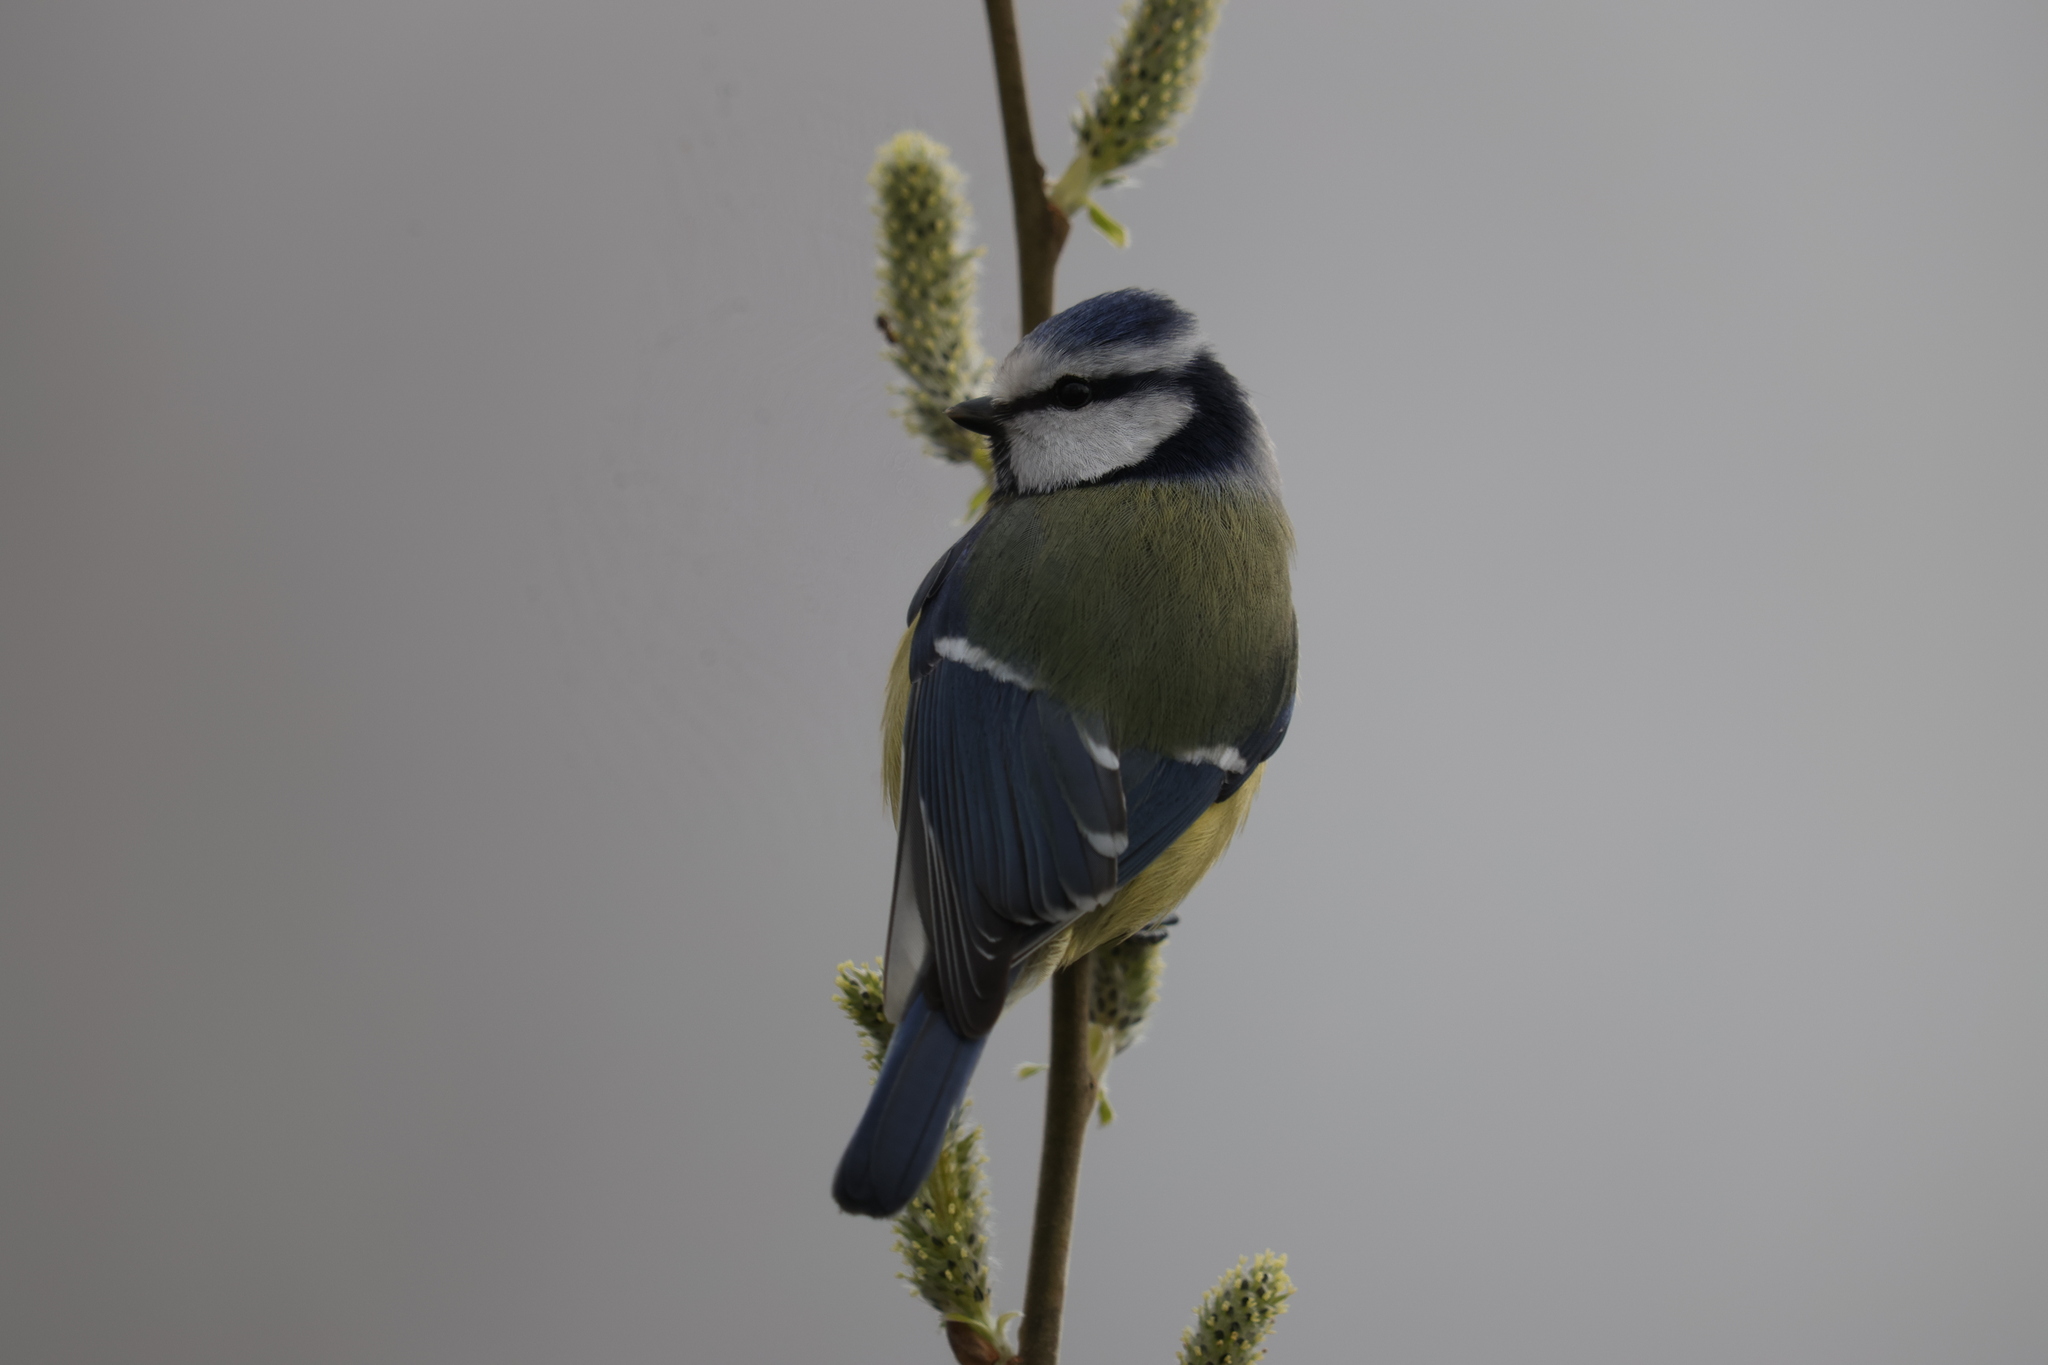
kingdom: Animalia
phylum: Chordata
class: Aves
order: Passeriformes
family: Paridae
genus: Cyanistes
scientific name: Cyanistes caeruleus
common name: Eurasian blue tit
